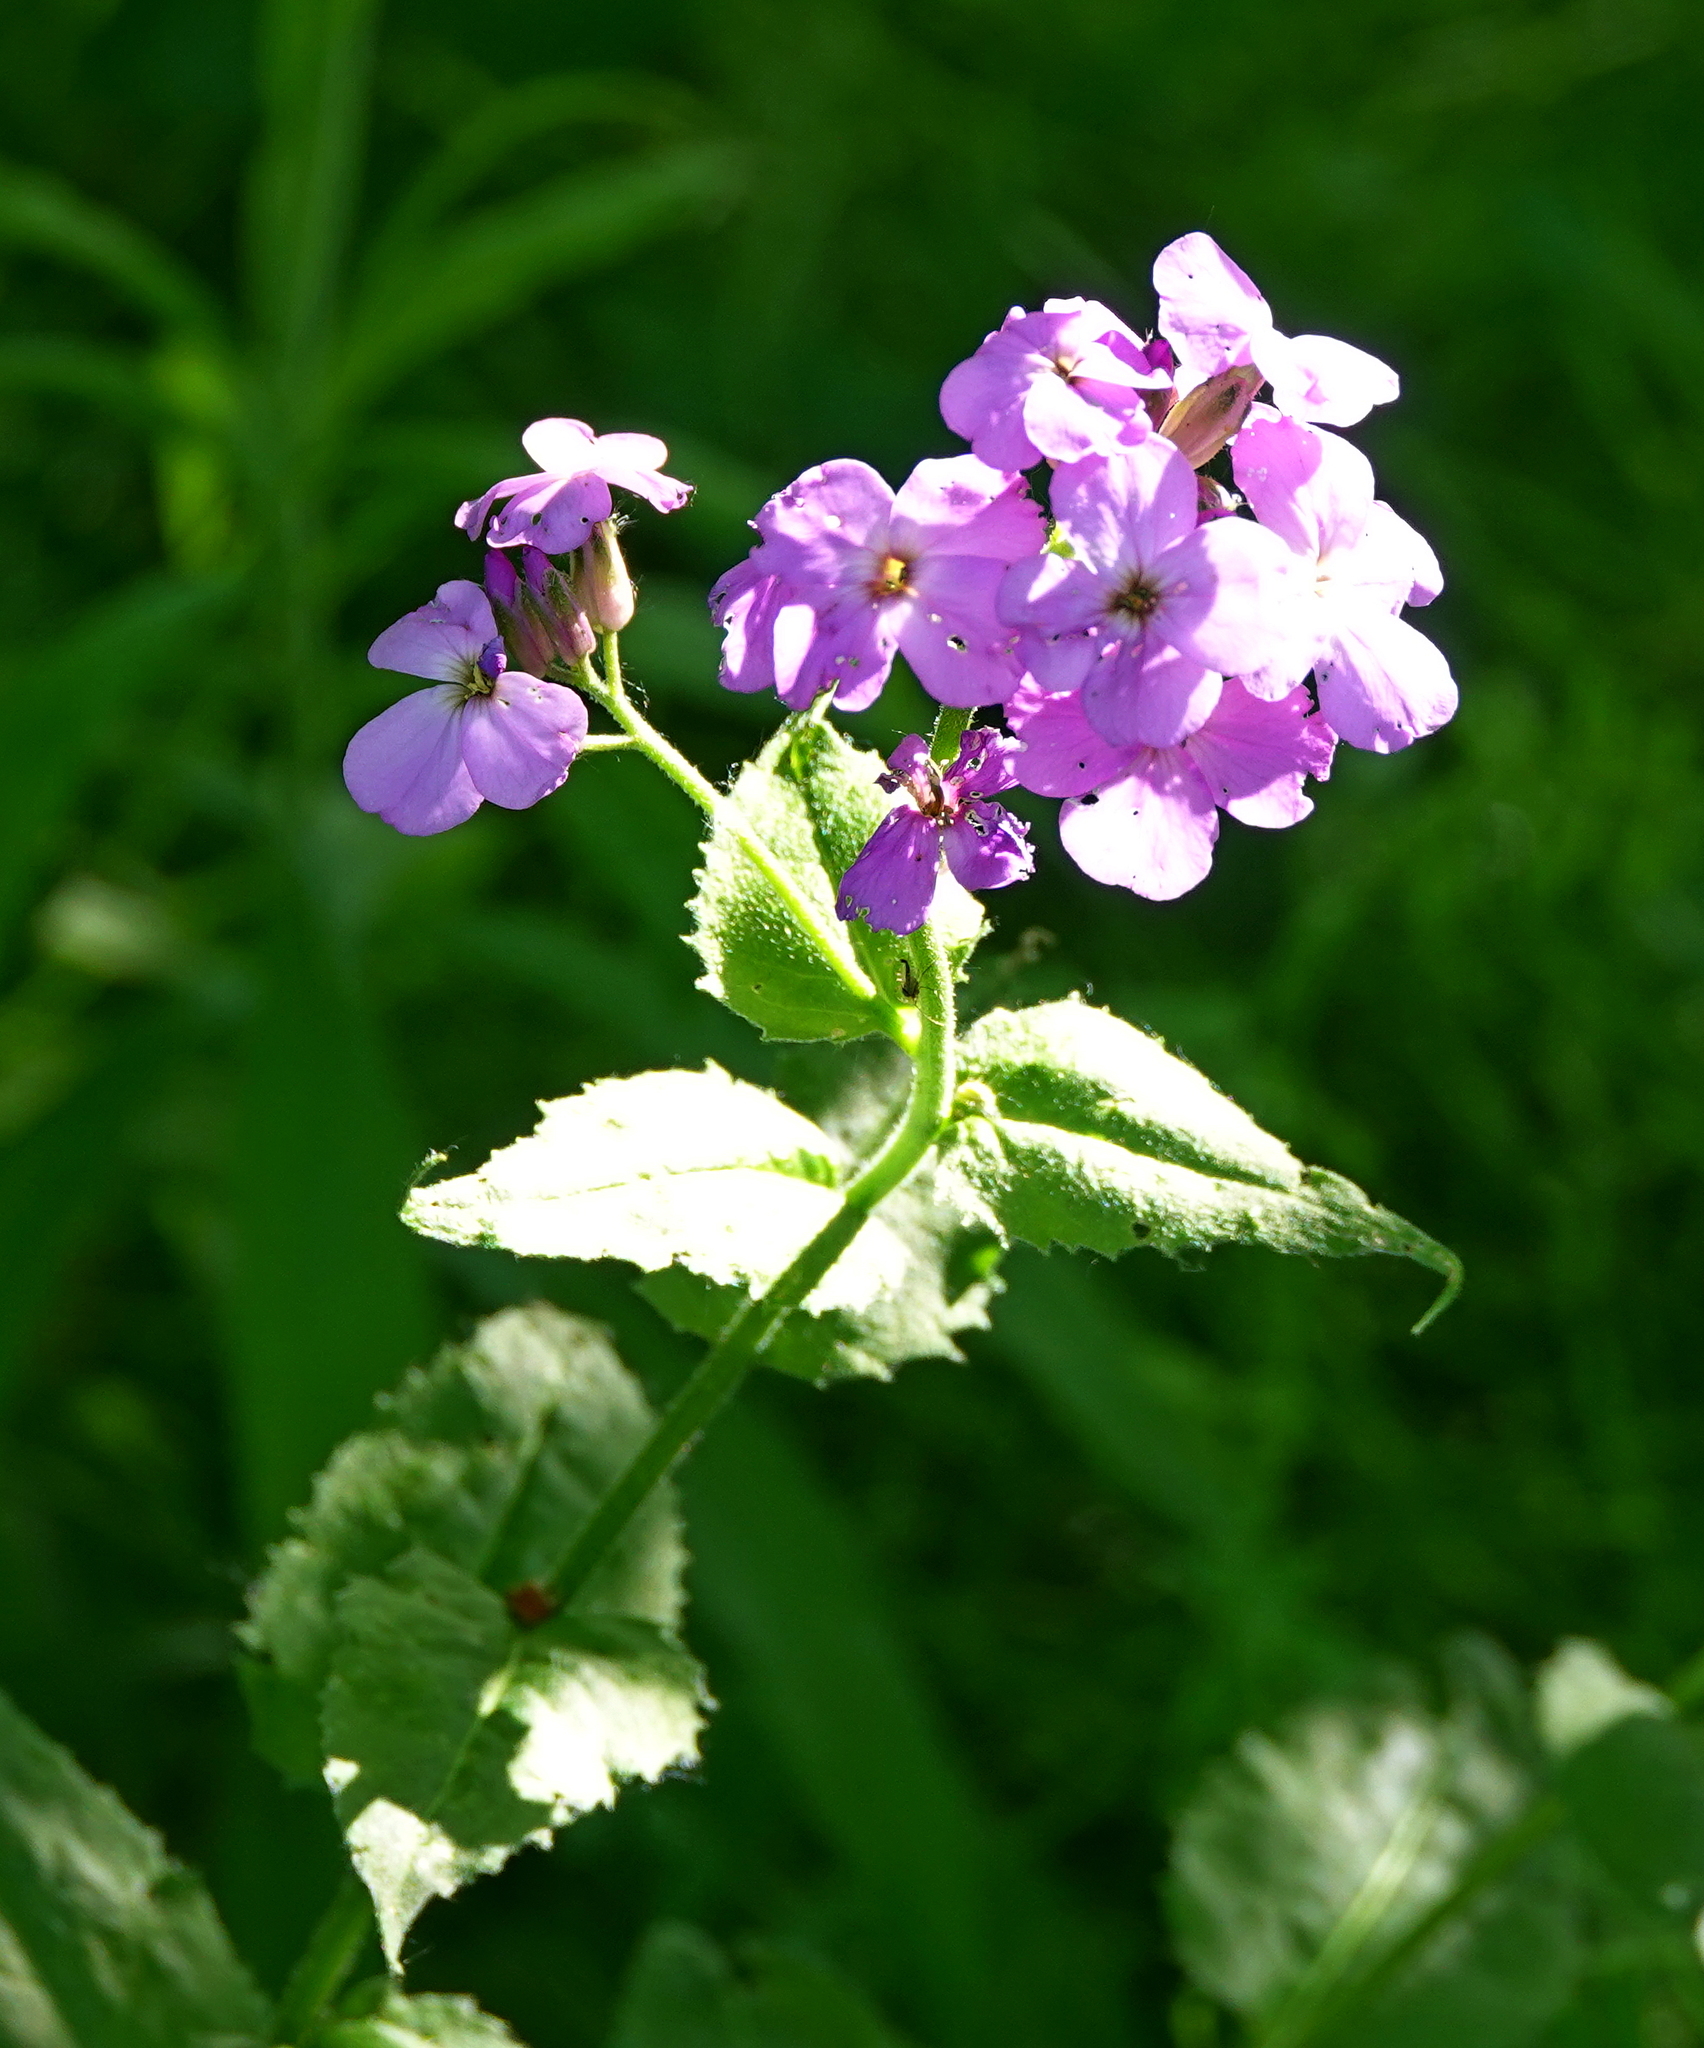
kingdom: Plantae
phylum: Tracheophyta
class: Magnoliopsida
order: Brassicales
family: Brassicaceae
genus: Hesperis
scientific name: Hesperis matronalis
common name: Dame's-violet
